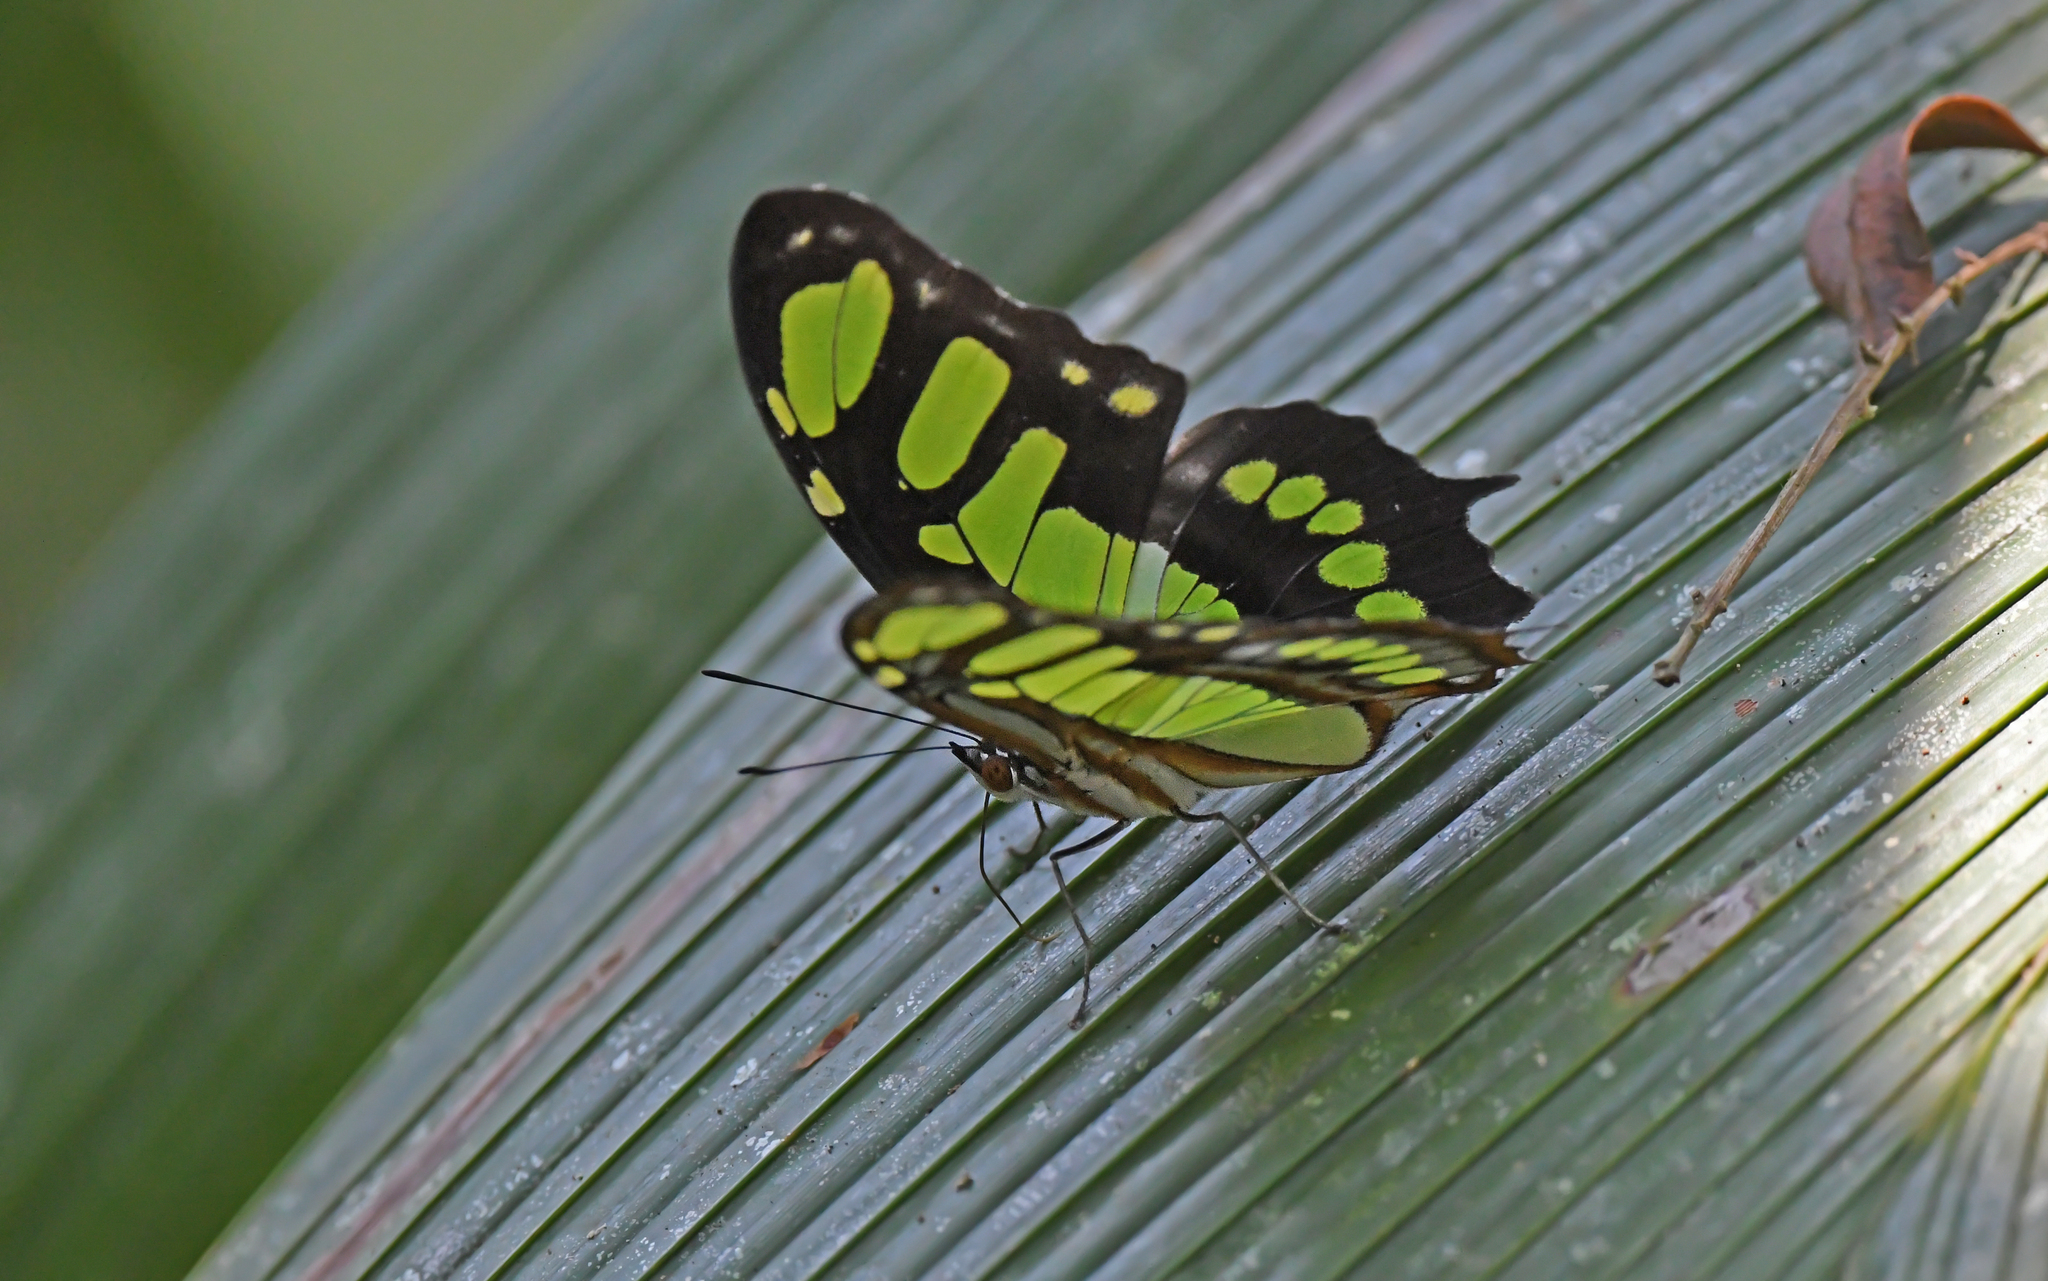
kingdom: Animalia
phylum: Arthropoda
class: Insecta
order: Lepidoptera
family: Nymphalidae
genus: Siproeta
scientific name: Siproeta stelenes
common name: Malachite
